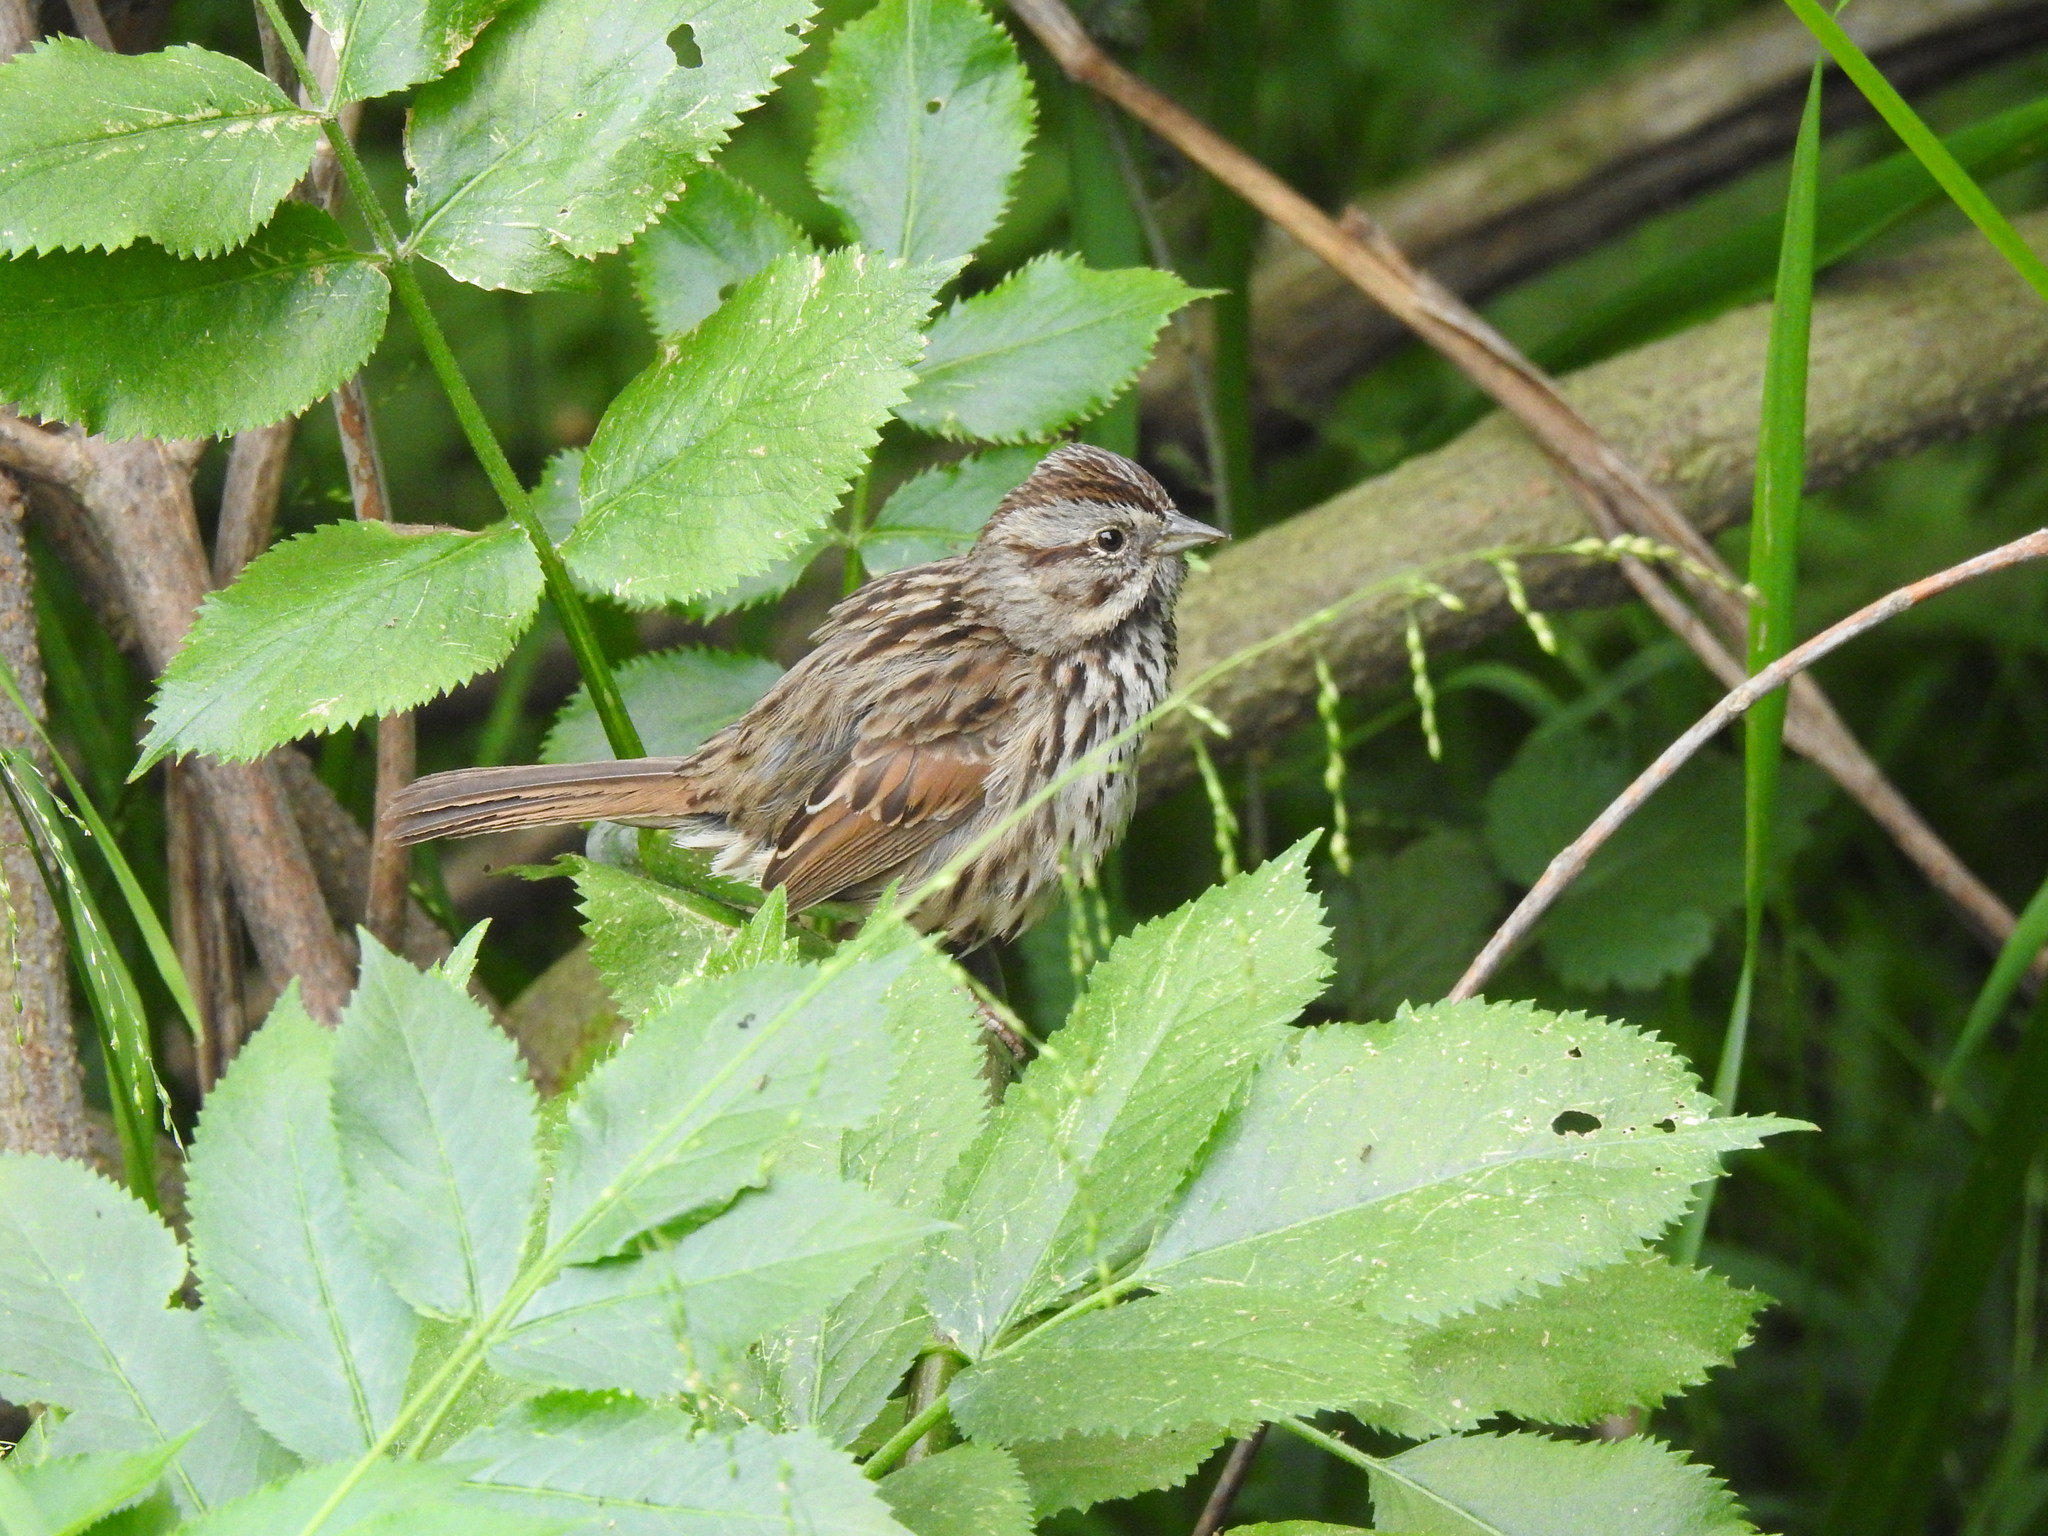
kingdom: Animalia
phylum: Chordata
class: Aves
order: Passeriformes
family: Passerellidae
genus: Melospiza
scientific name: Melospiza melodia
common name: Song sparrow
